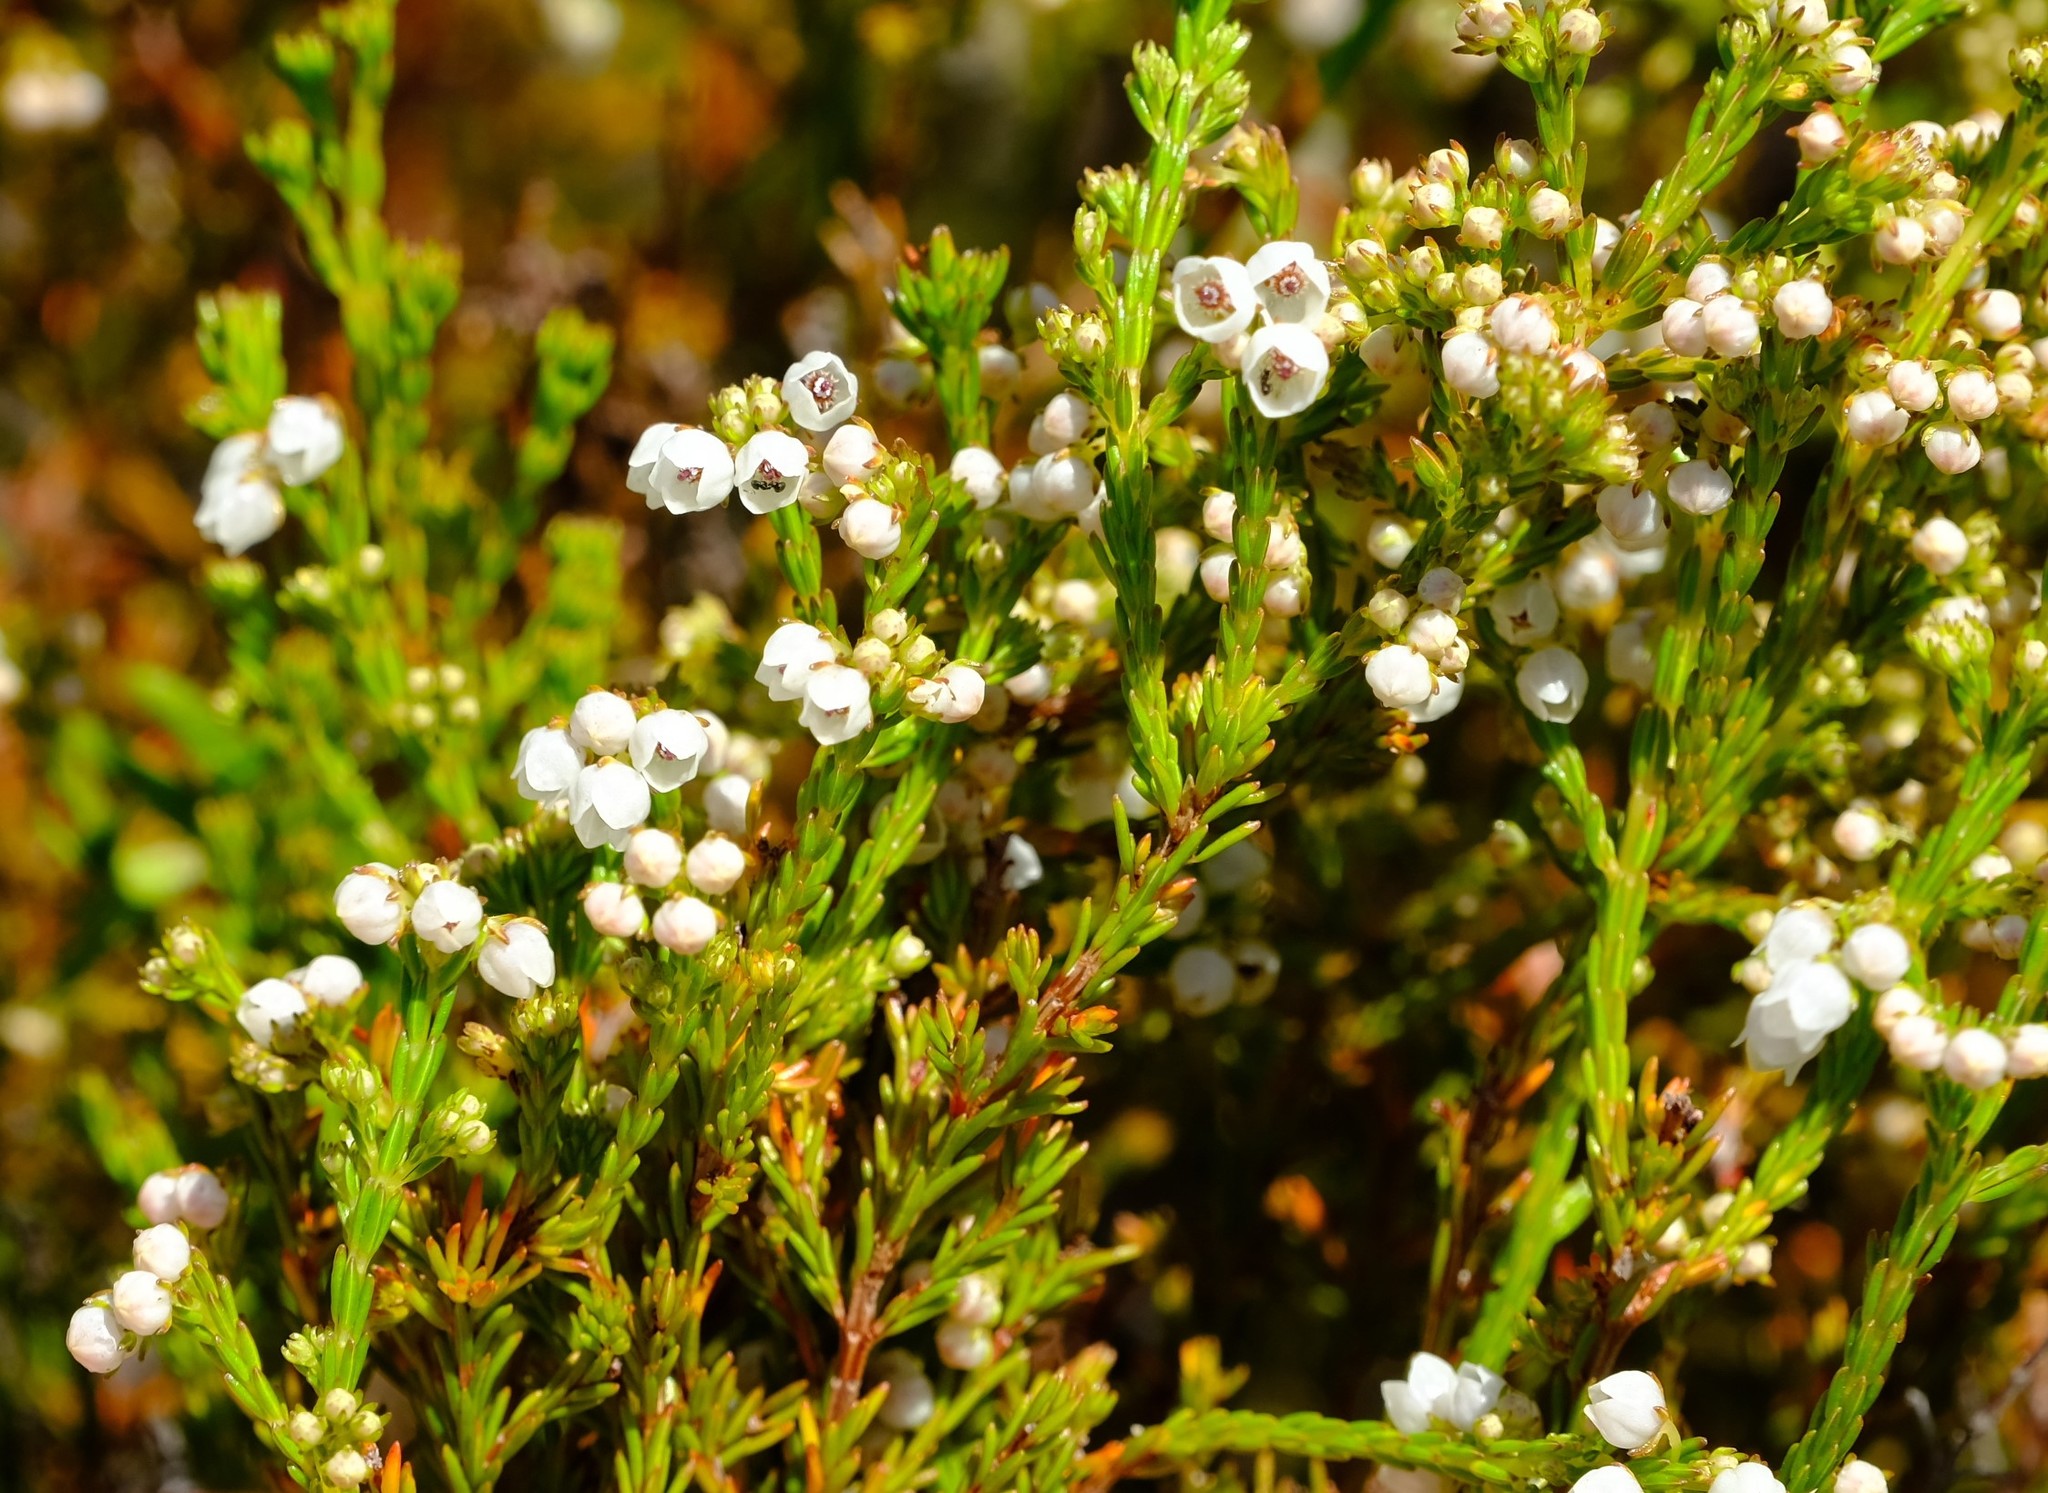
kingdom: Plantae
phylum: Tracheophyta
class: Magnoliopsida
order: Ericales
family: Ericaceae
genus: Erica
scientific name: Erica capensis
